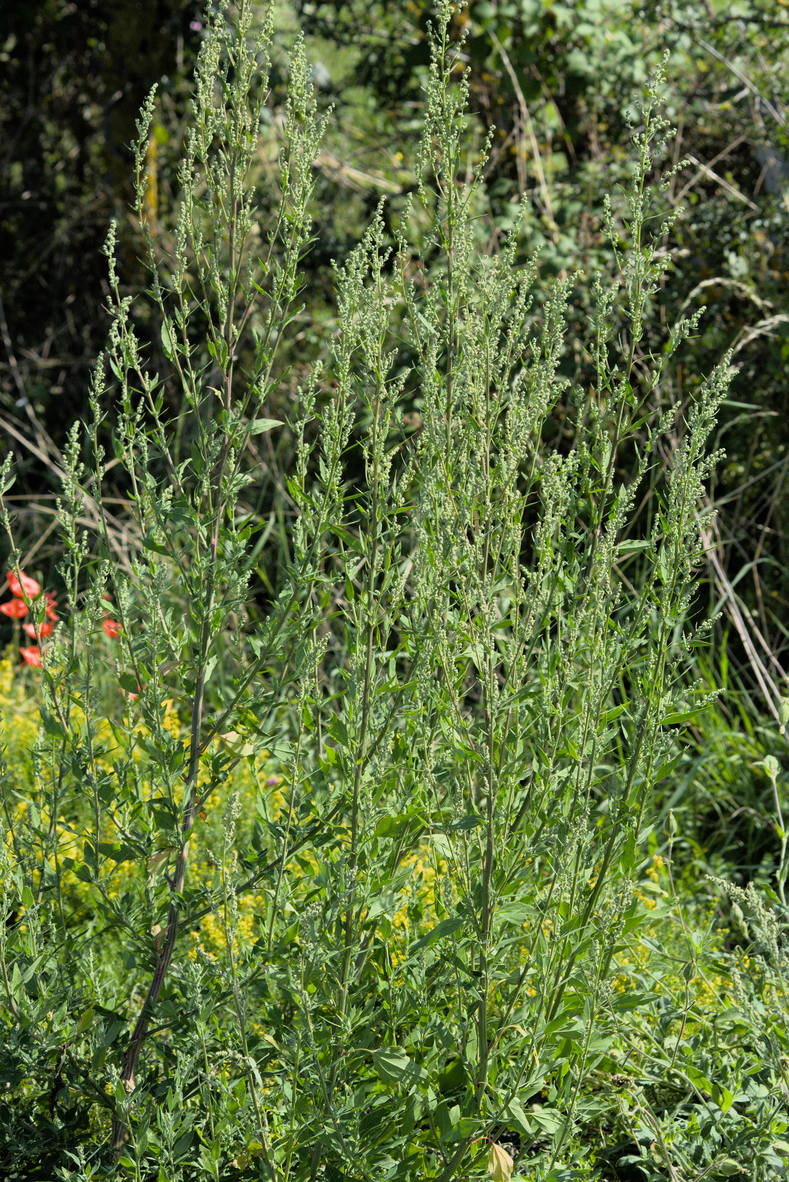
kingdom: Plantae
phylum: Tracheophyta
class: Magnoliopsida
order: Caryophyllales
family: Amaranthaceae
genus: Chenopodium
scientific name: Chenopodium album
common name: Fat-hen
